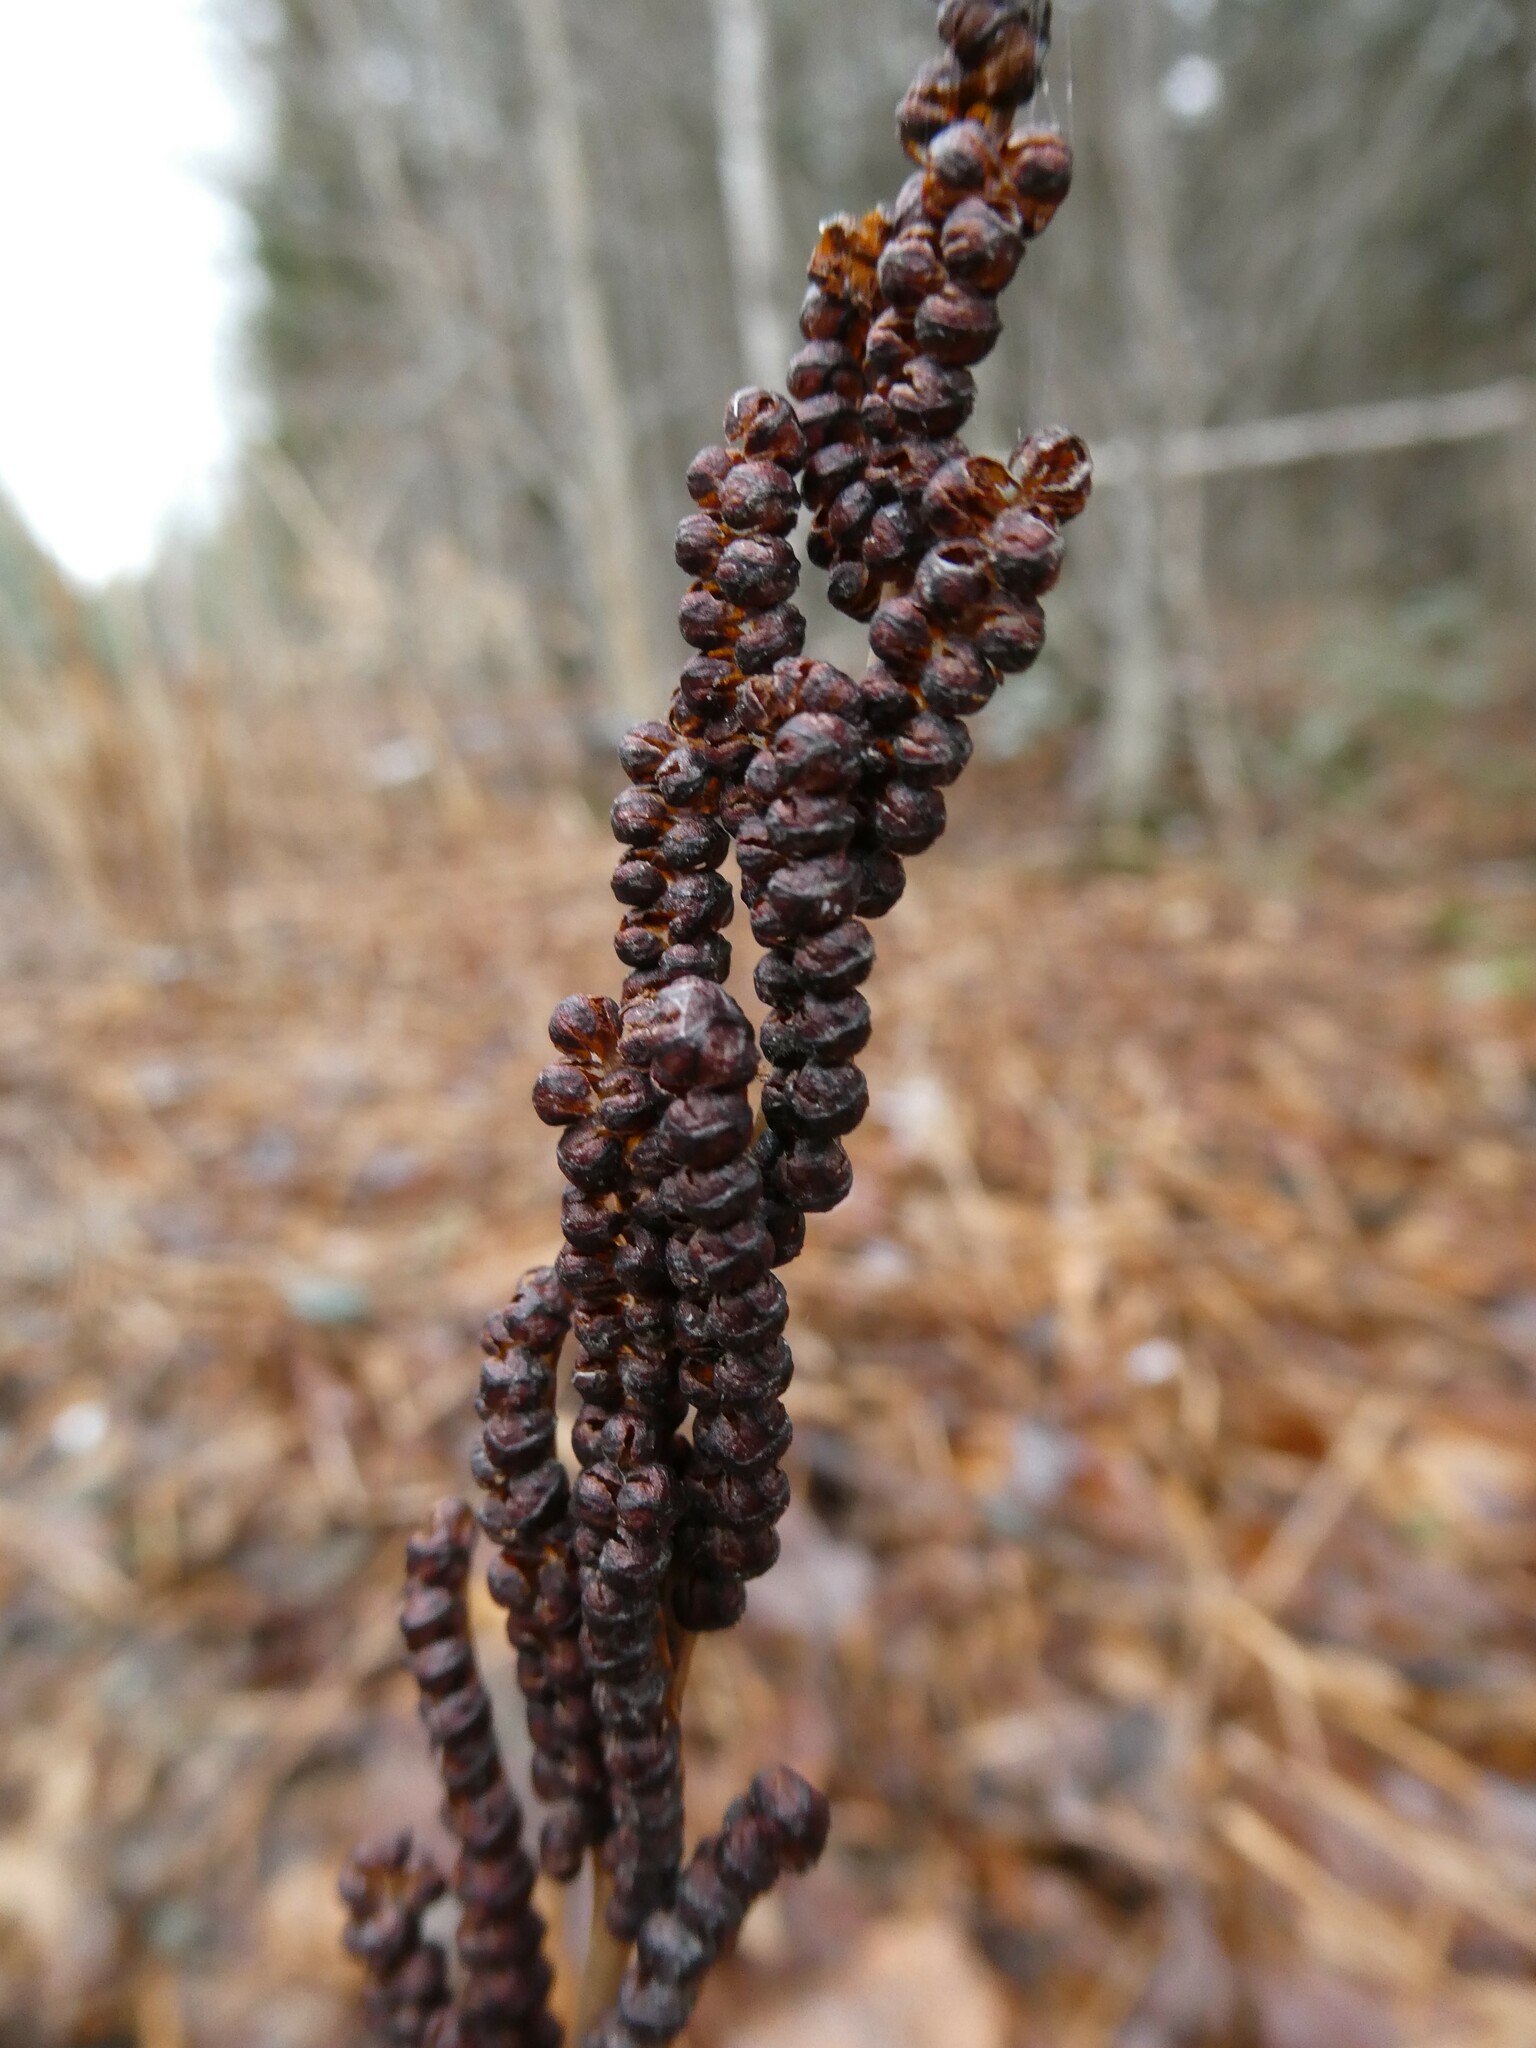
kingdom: Plantae
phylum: Tracheophyta
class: Polypodiopsida
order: Polypodiales
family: Onocleaceae
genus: Onoclea
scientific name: Onoclea sensibilis
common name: Sensitive fern
